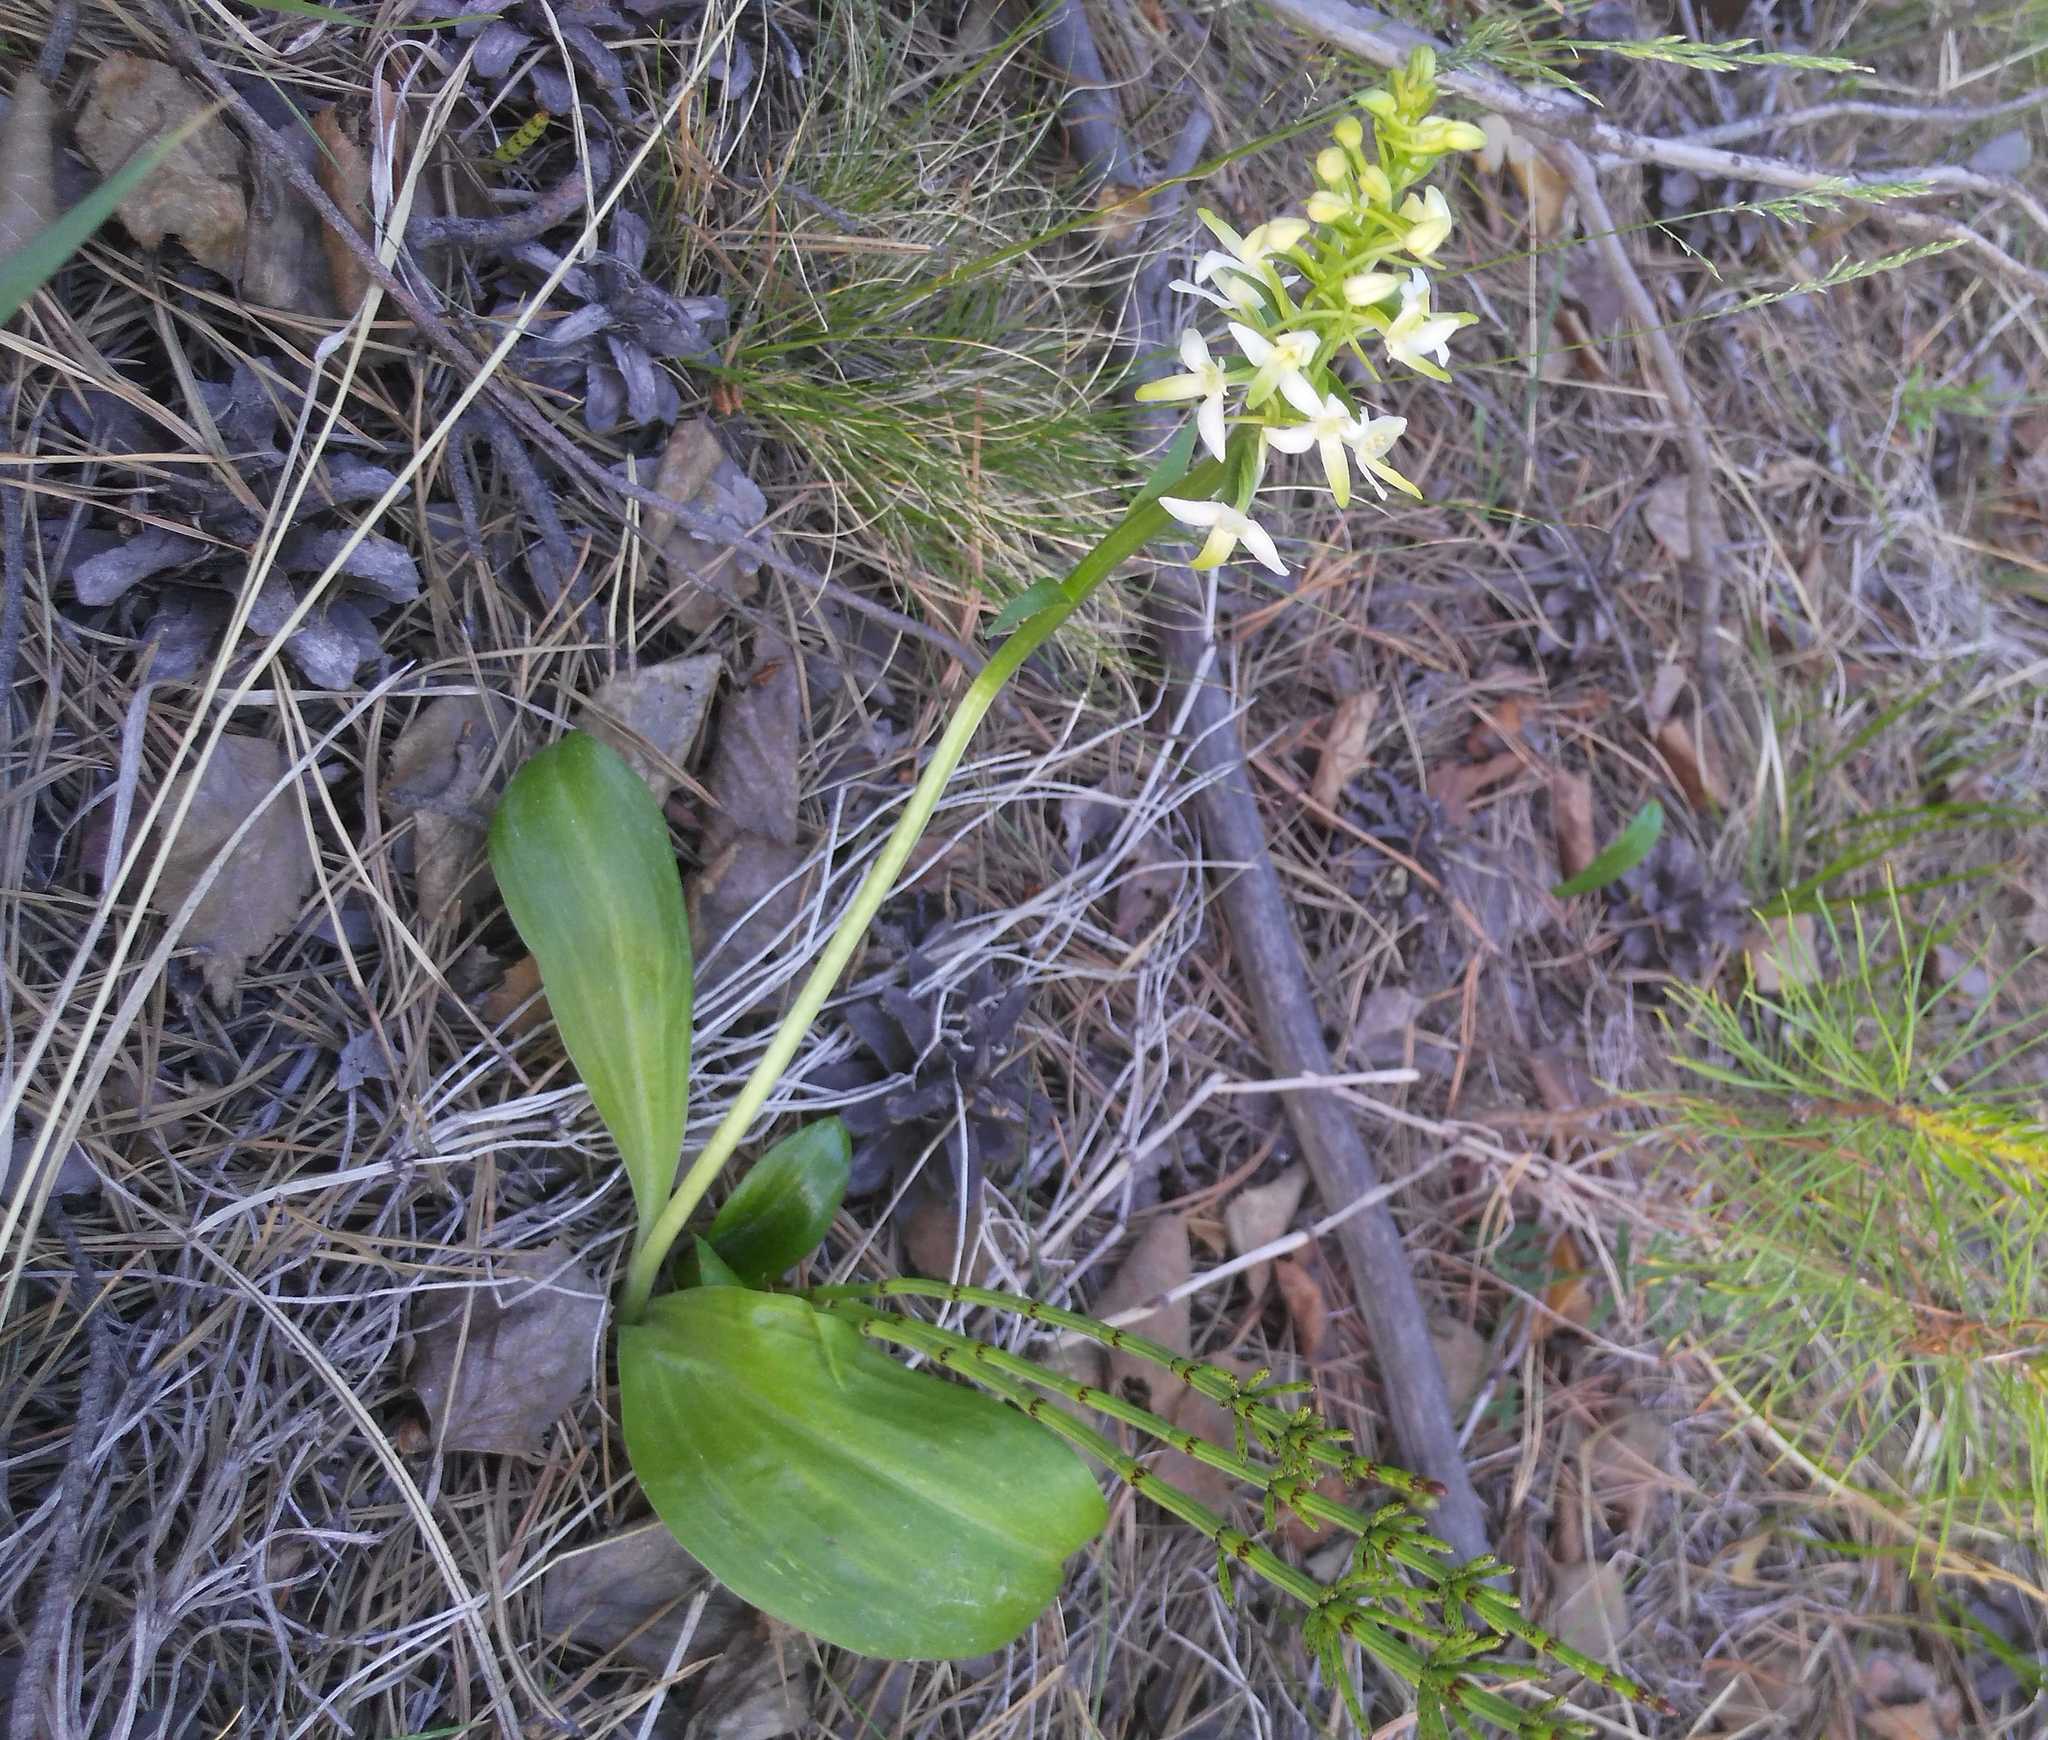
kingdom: Plantae
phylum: Tracheophyta
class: Liliopsida
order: Asparagales
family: Orchidaceae
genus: Platanthera
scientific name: Platanthera bifolia
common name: Lesser butterfly-orchid
